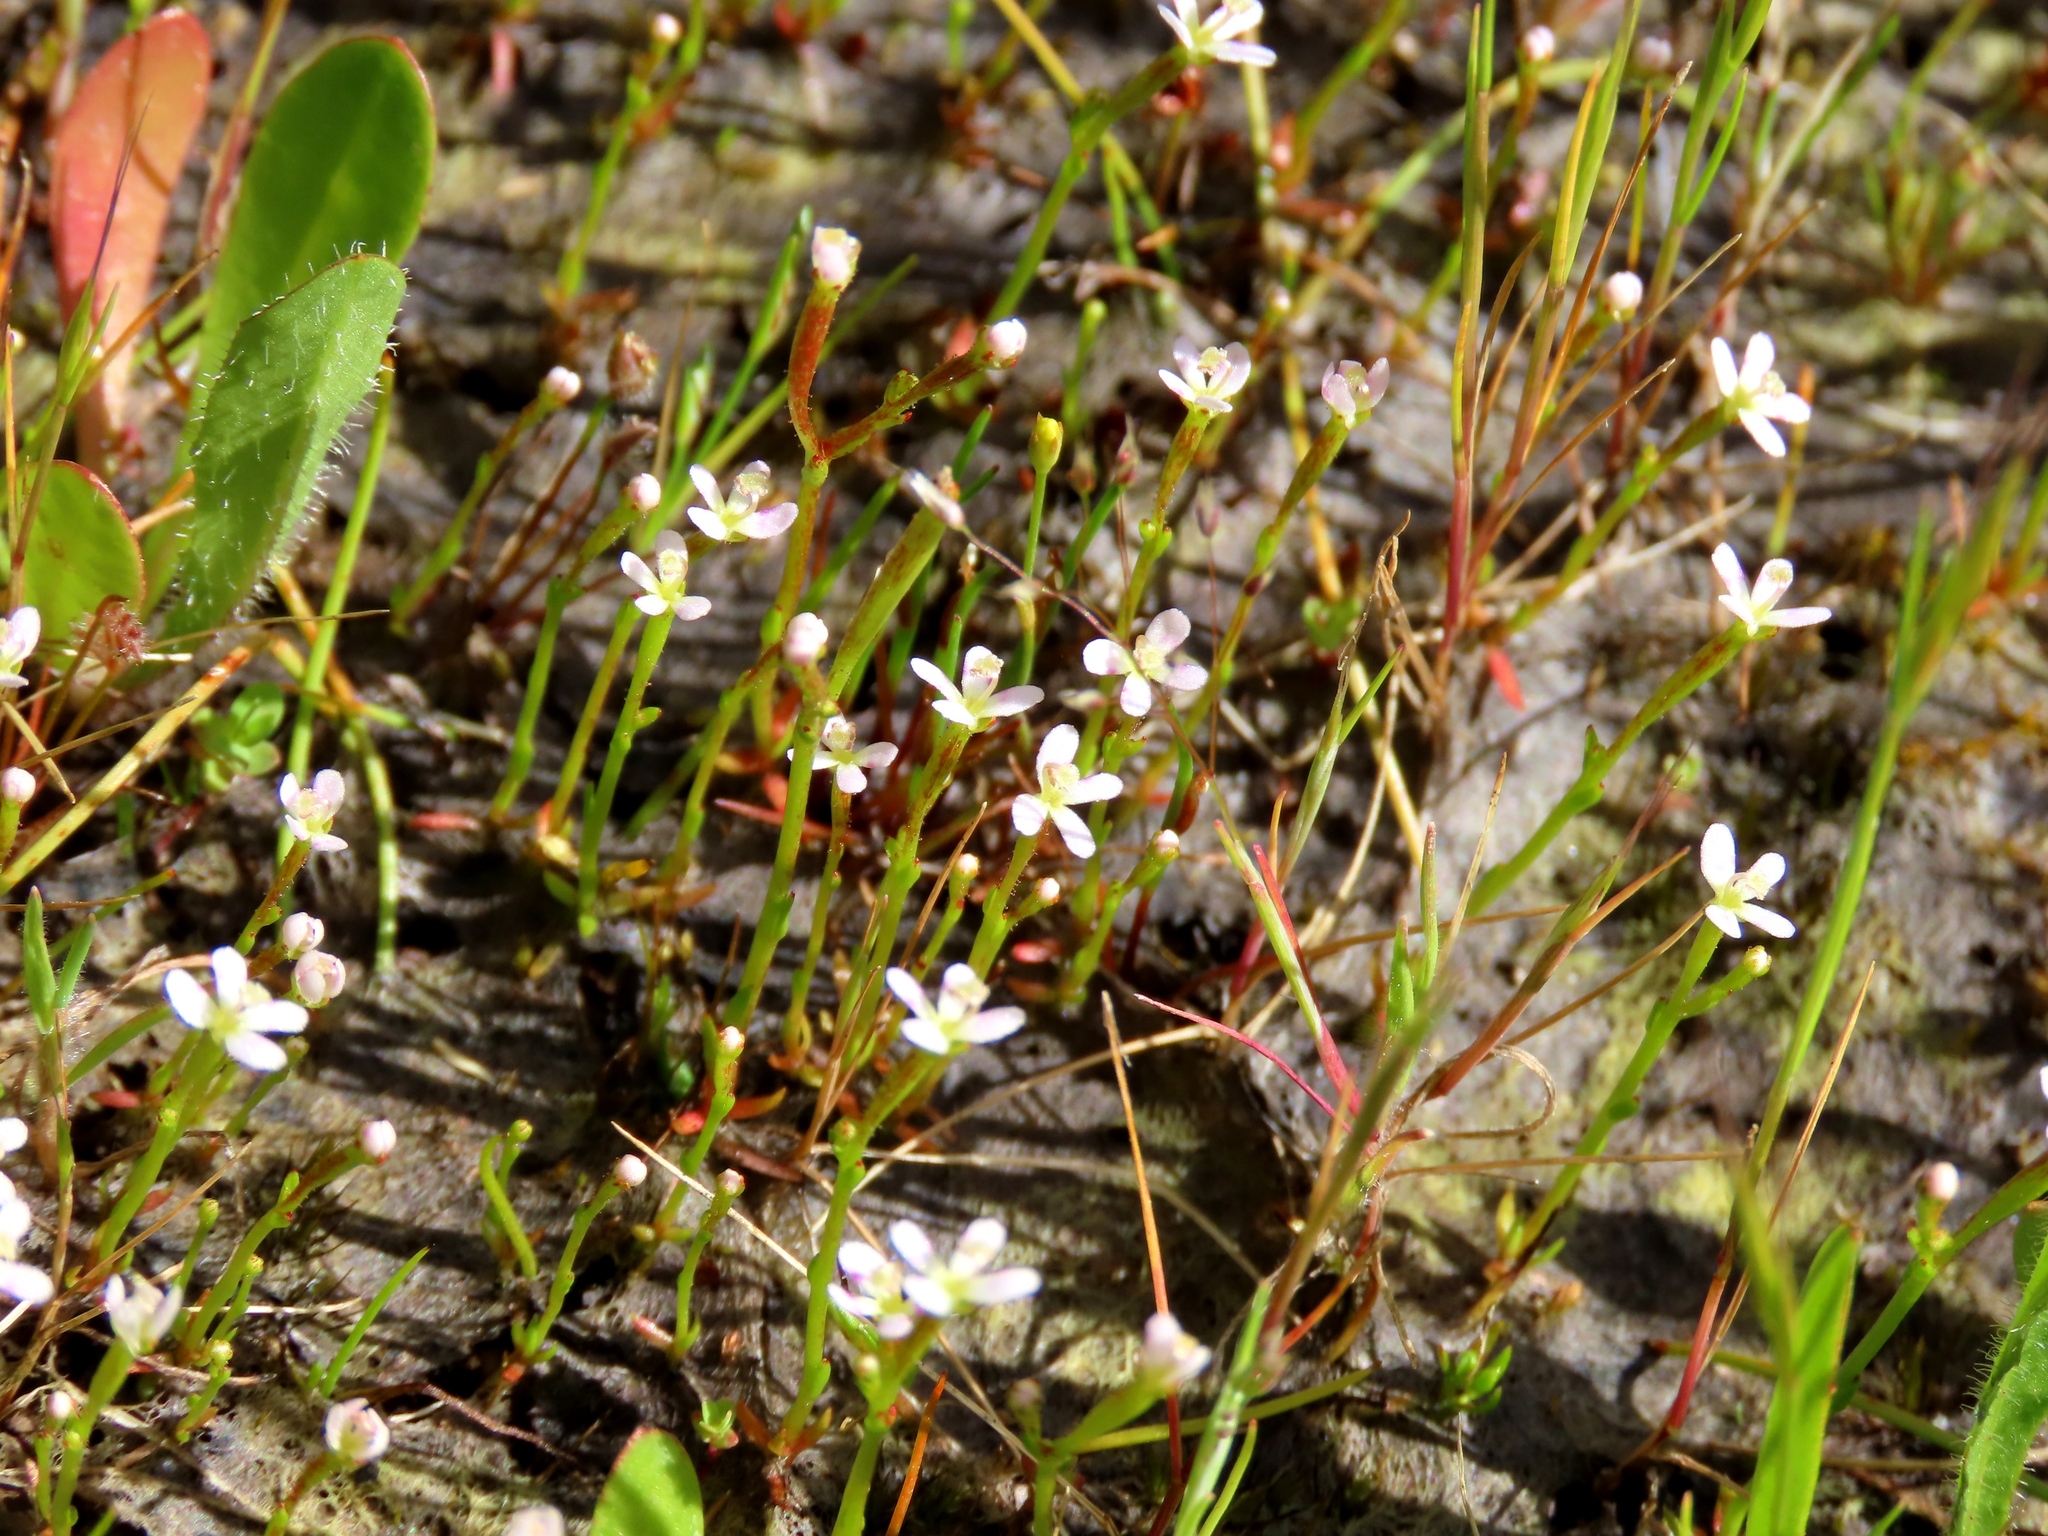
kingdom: Plantae
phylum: Tracheophyta
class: Magnoliopsida
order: Asterales
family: Stylidiaceae
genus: Levenhookia
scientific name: Levenhookia dubia
